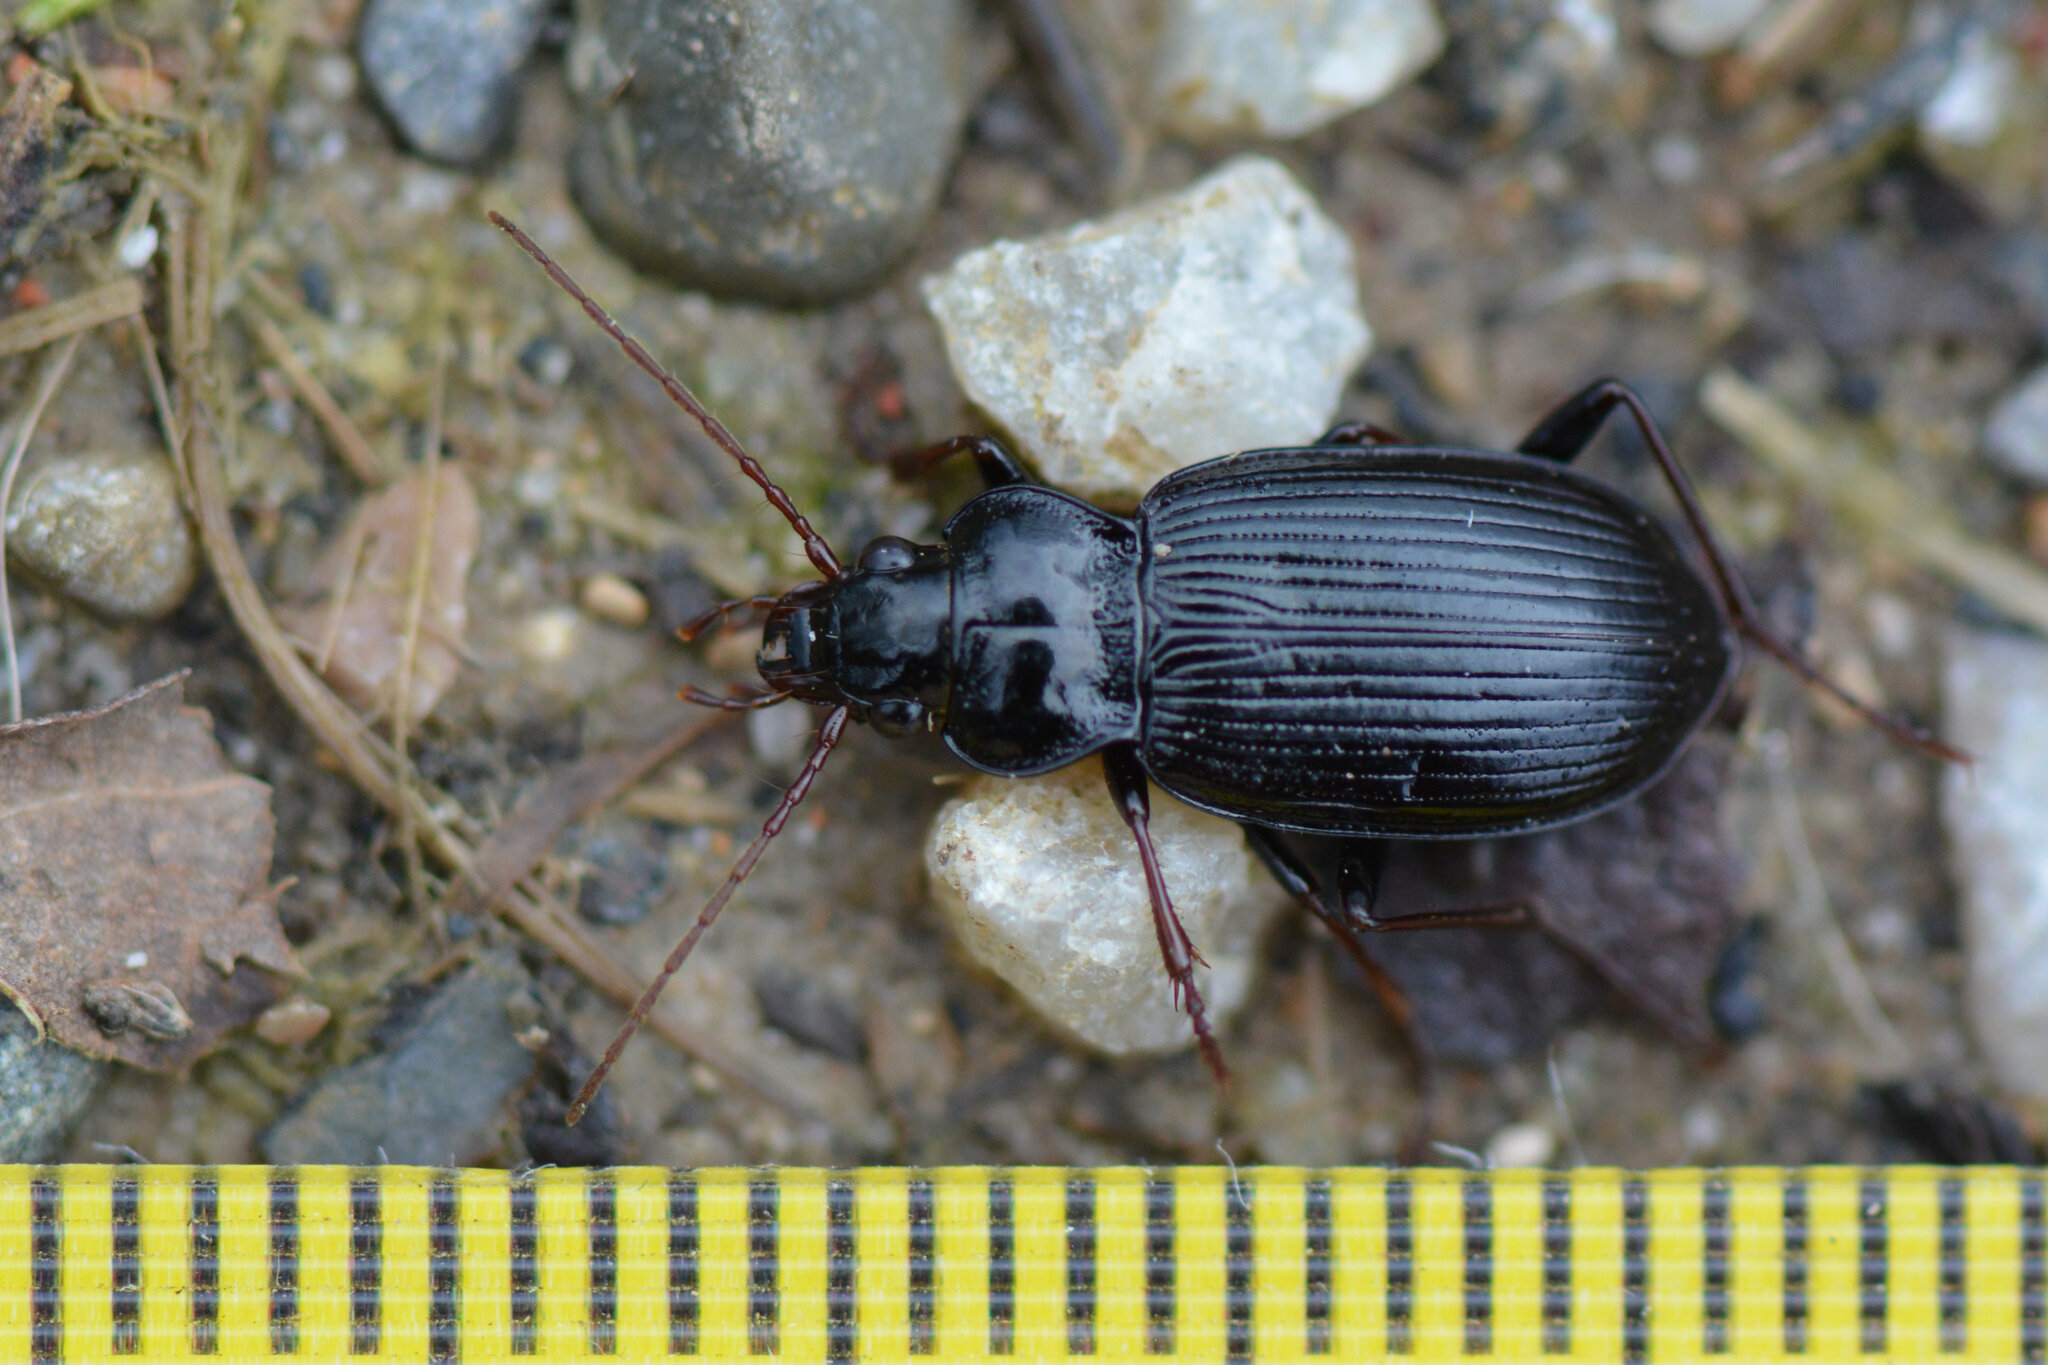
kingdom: Animalia
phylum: Arthropoda
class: Insecta
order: Coleoptera
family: Carabidae
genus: Nebria
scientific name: Nebria brevicollis
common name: Short-necked gazelle beetle
